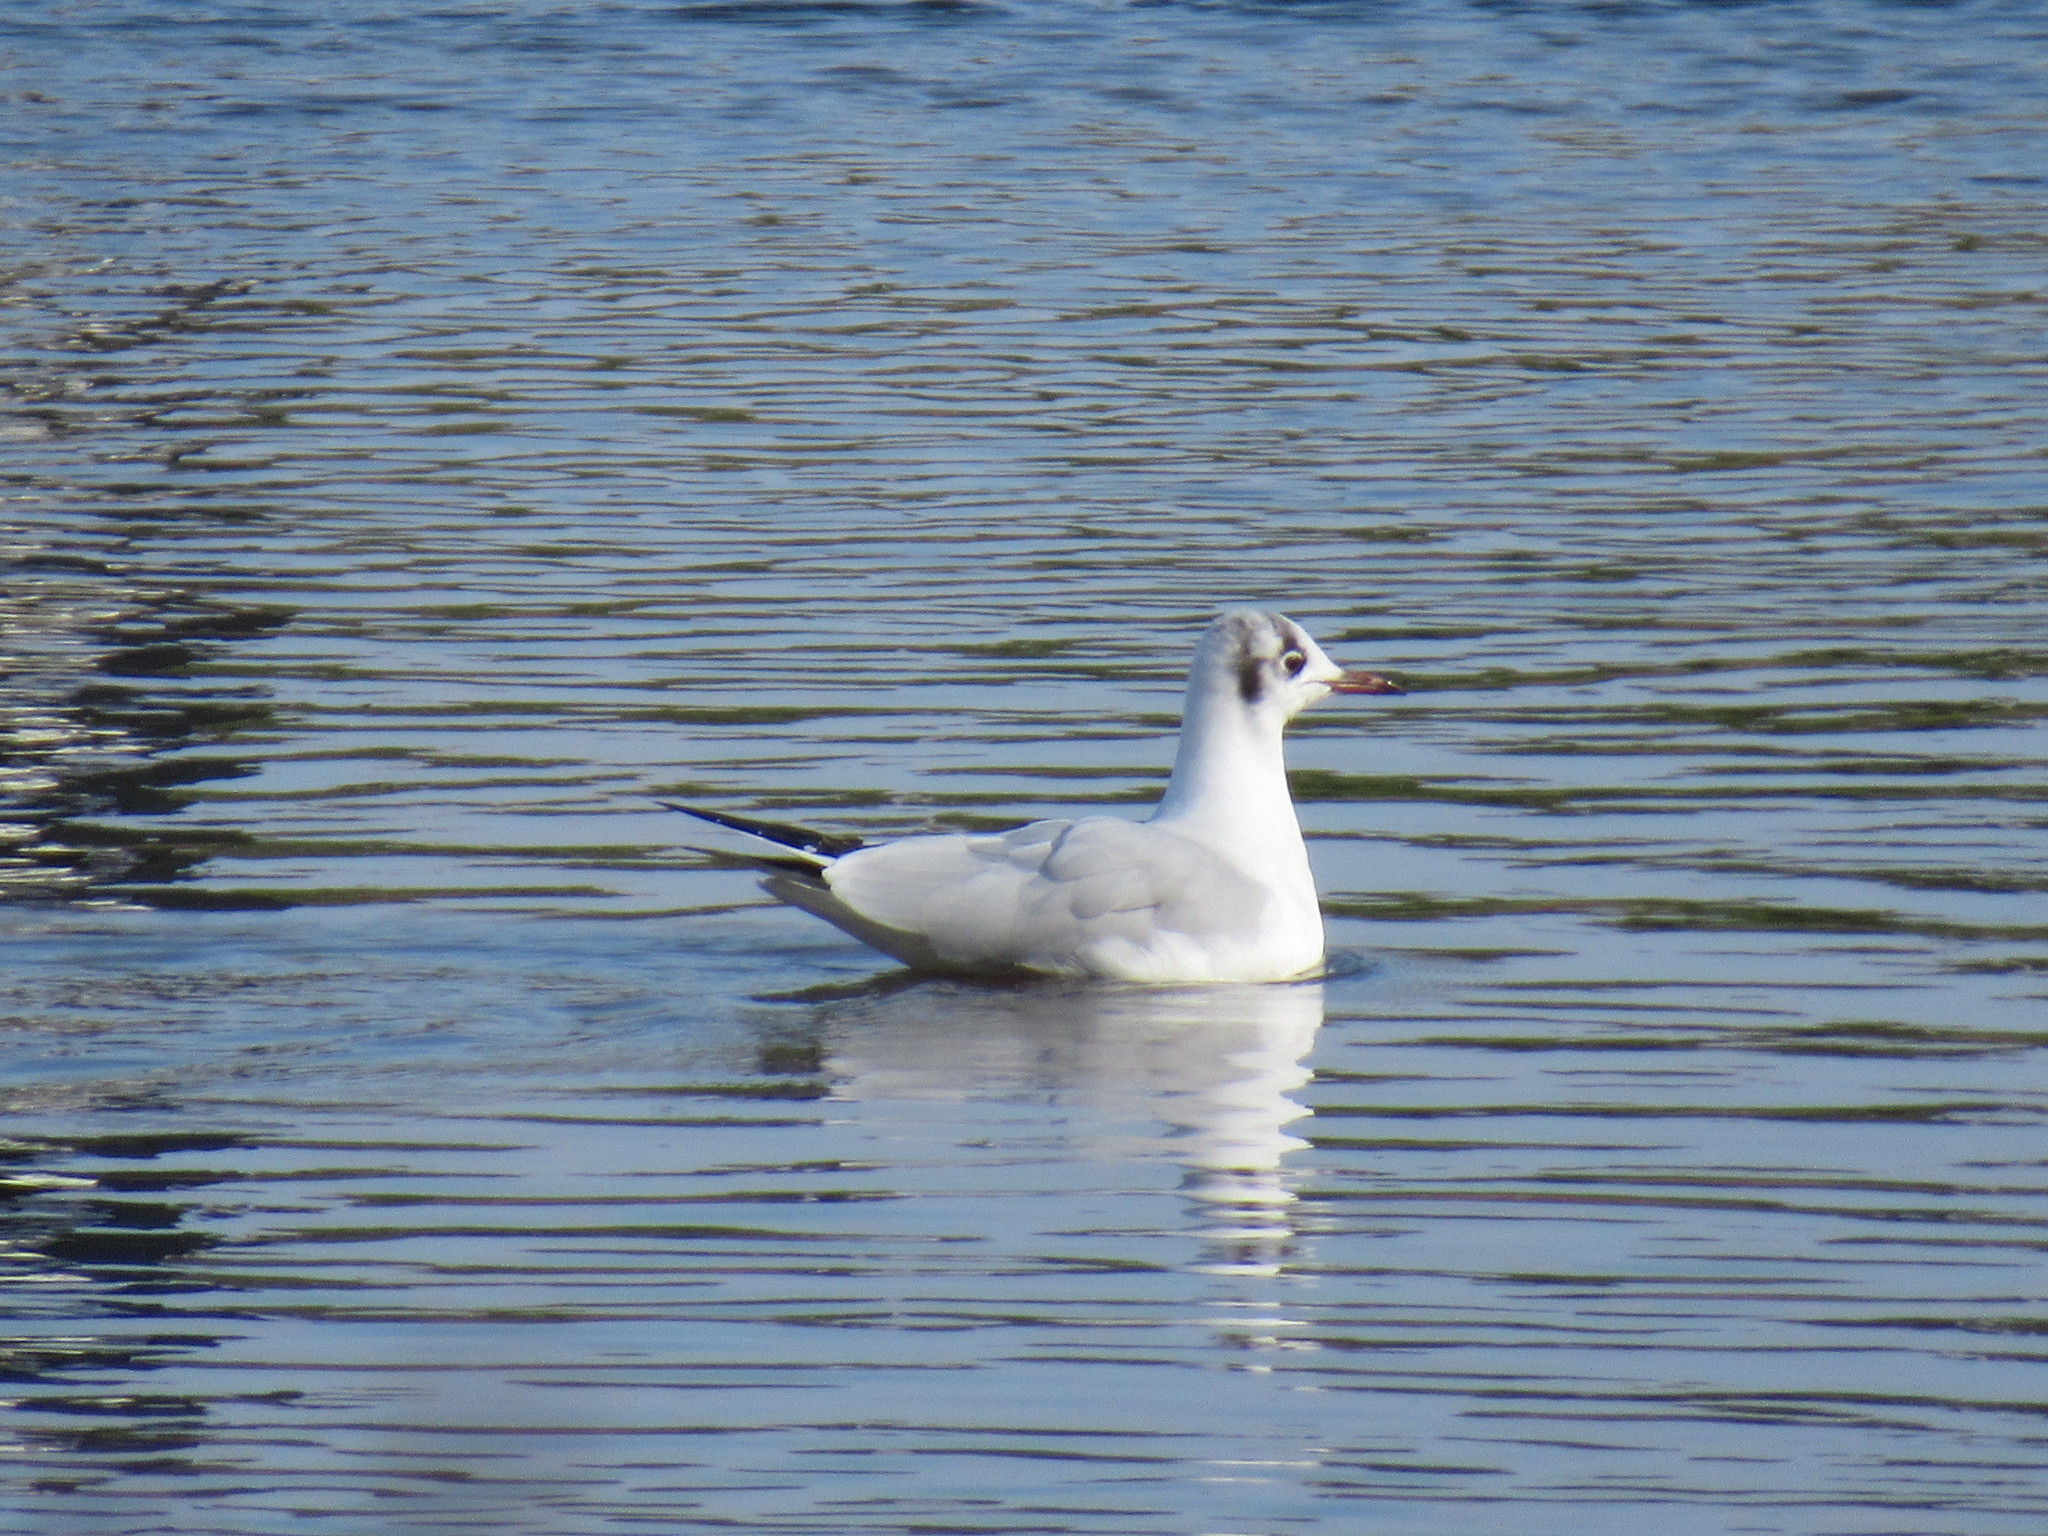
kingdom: Animalia
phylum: Chordata
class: Aves
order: Charadriiformes
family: Laridae
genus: Chroicocephalus
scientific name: Chroicocephalus ridibundus
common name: Black-headed gull
